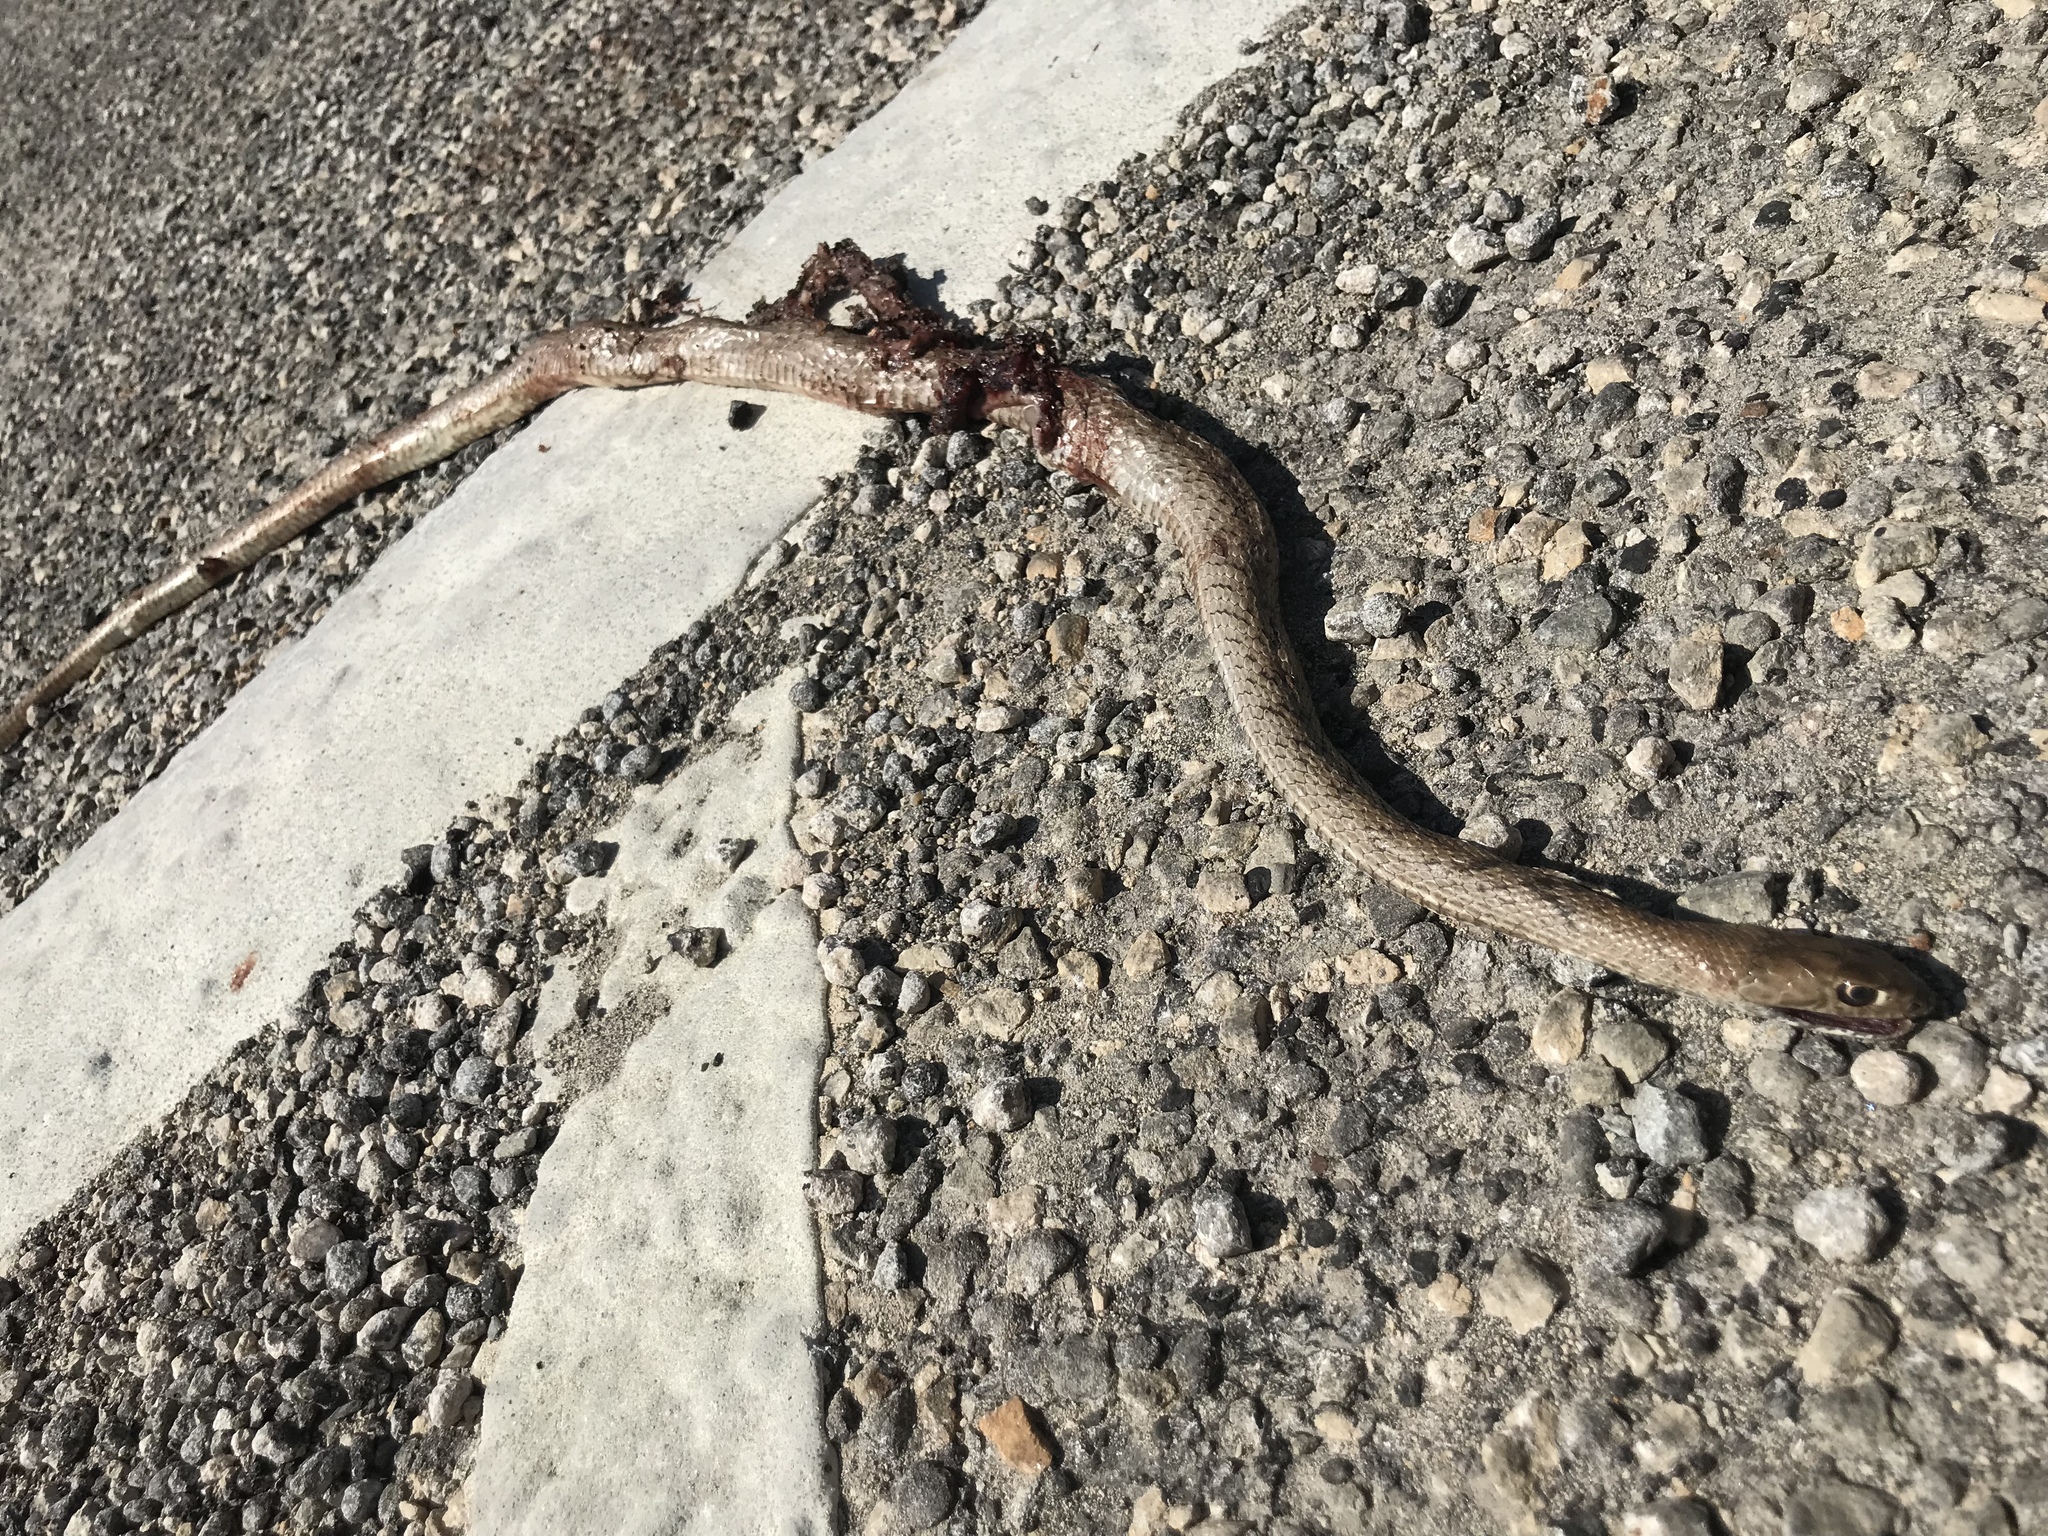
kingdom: Animalia
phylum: Chordata
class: Squamata
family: Colubridae
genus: Masticophis
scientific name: Masticophis flagellum
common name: Coachwhip
